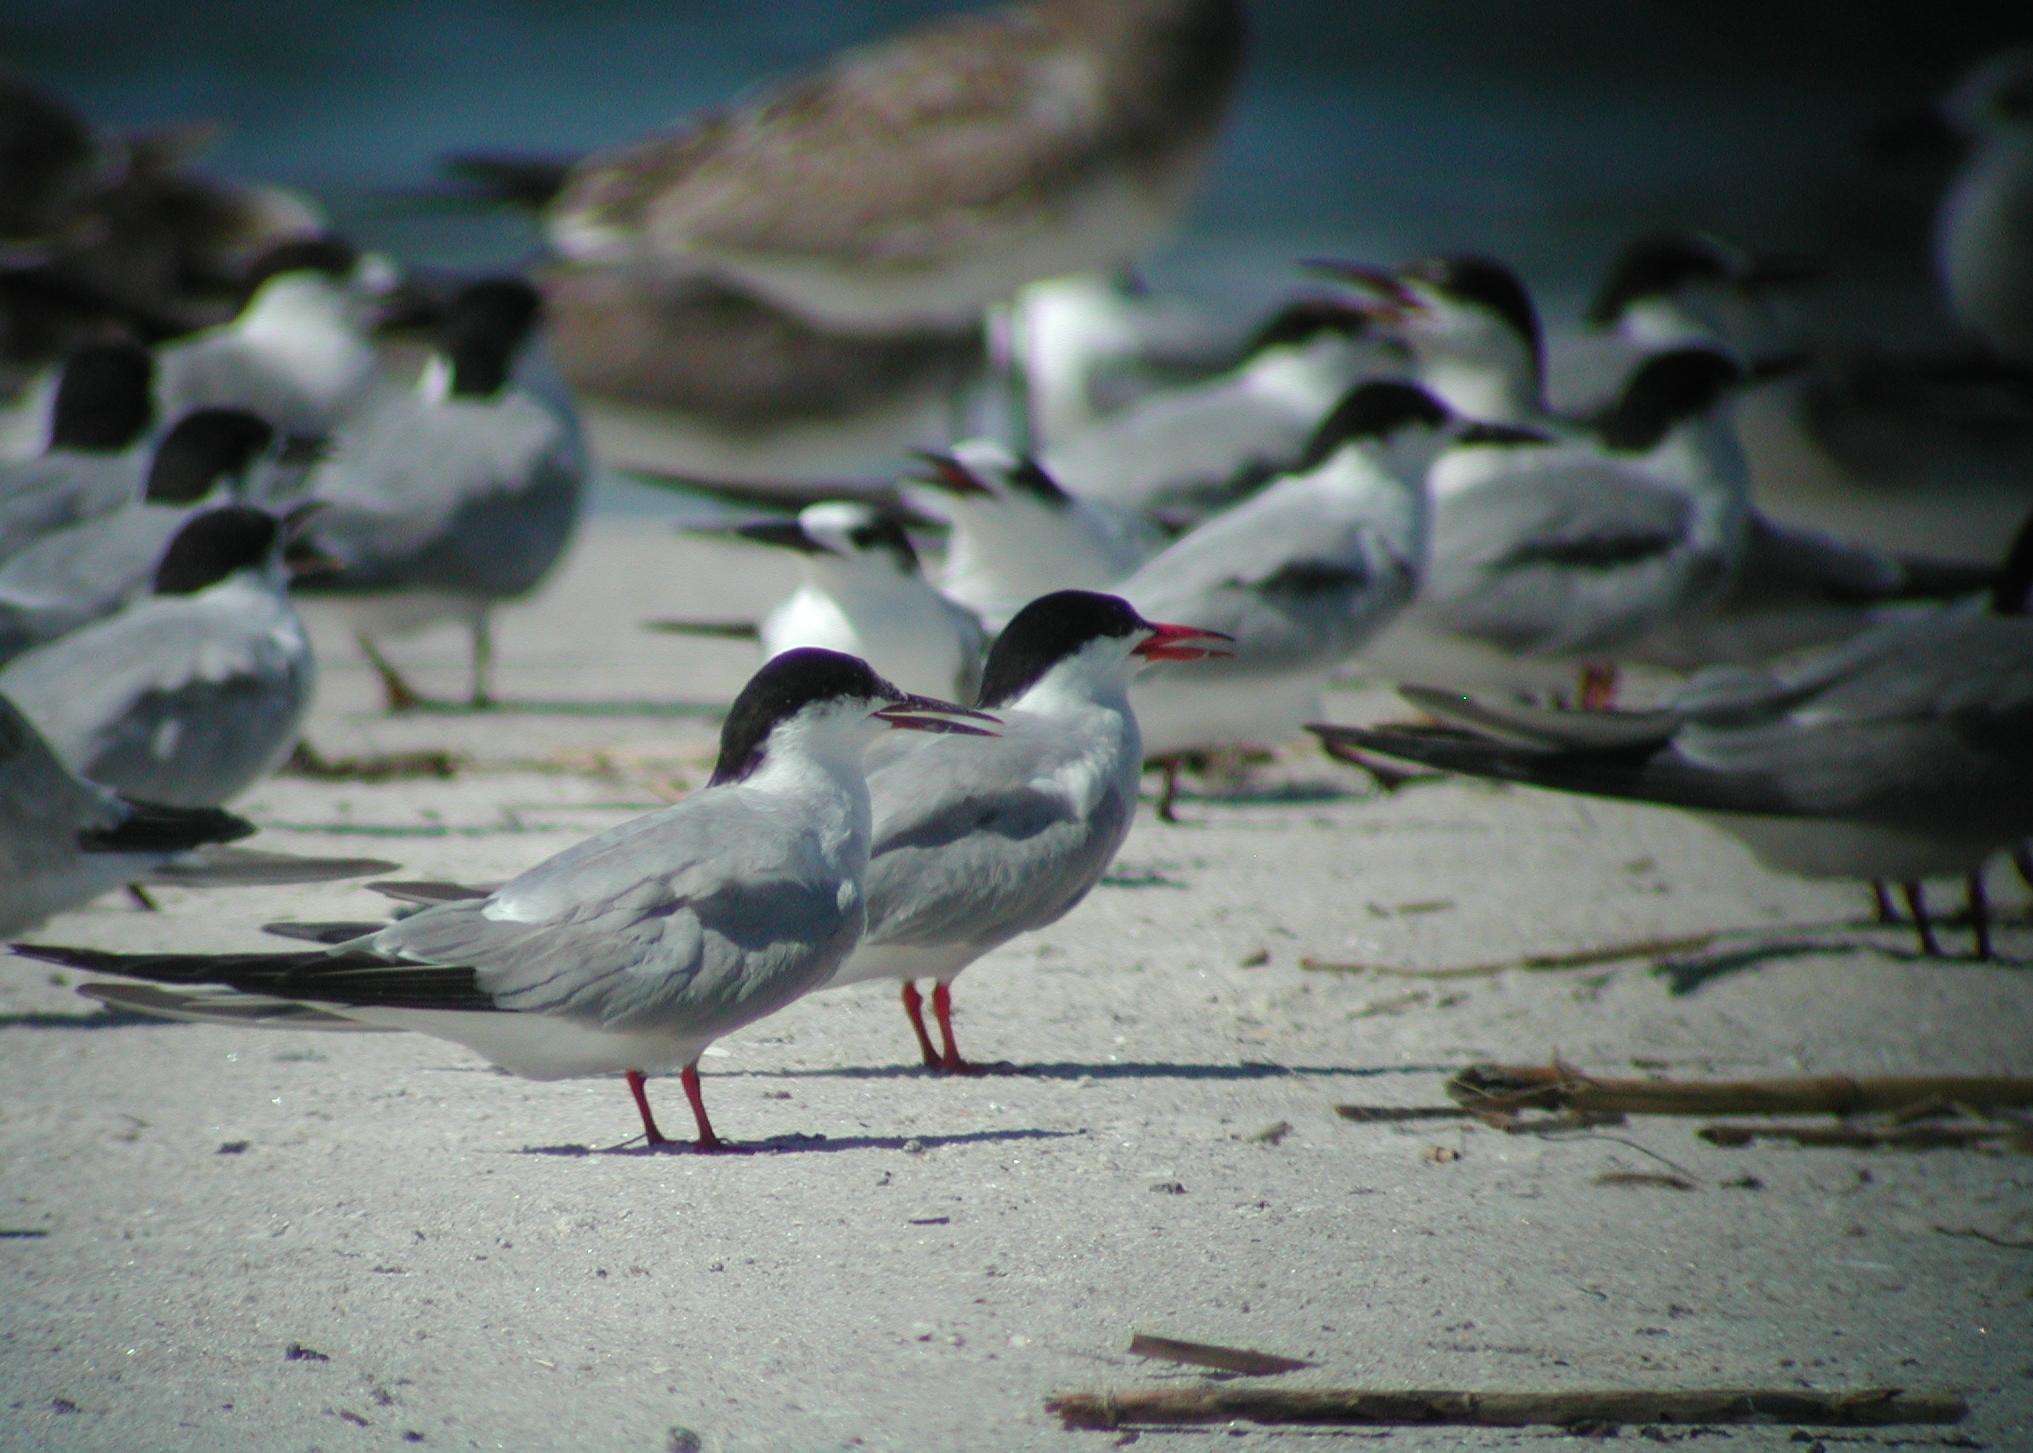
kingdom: Animalia
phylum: Chordata
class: Aves
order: Charadriiformes
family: Laridae
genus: Sterna
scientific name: Sterna hirundo
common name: Common tern
